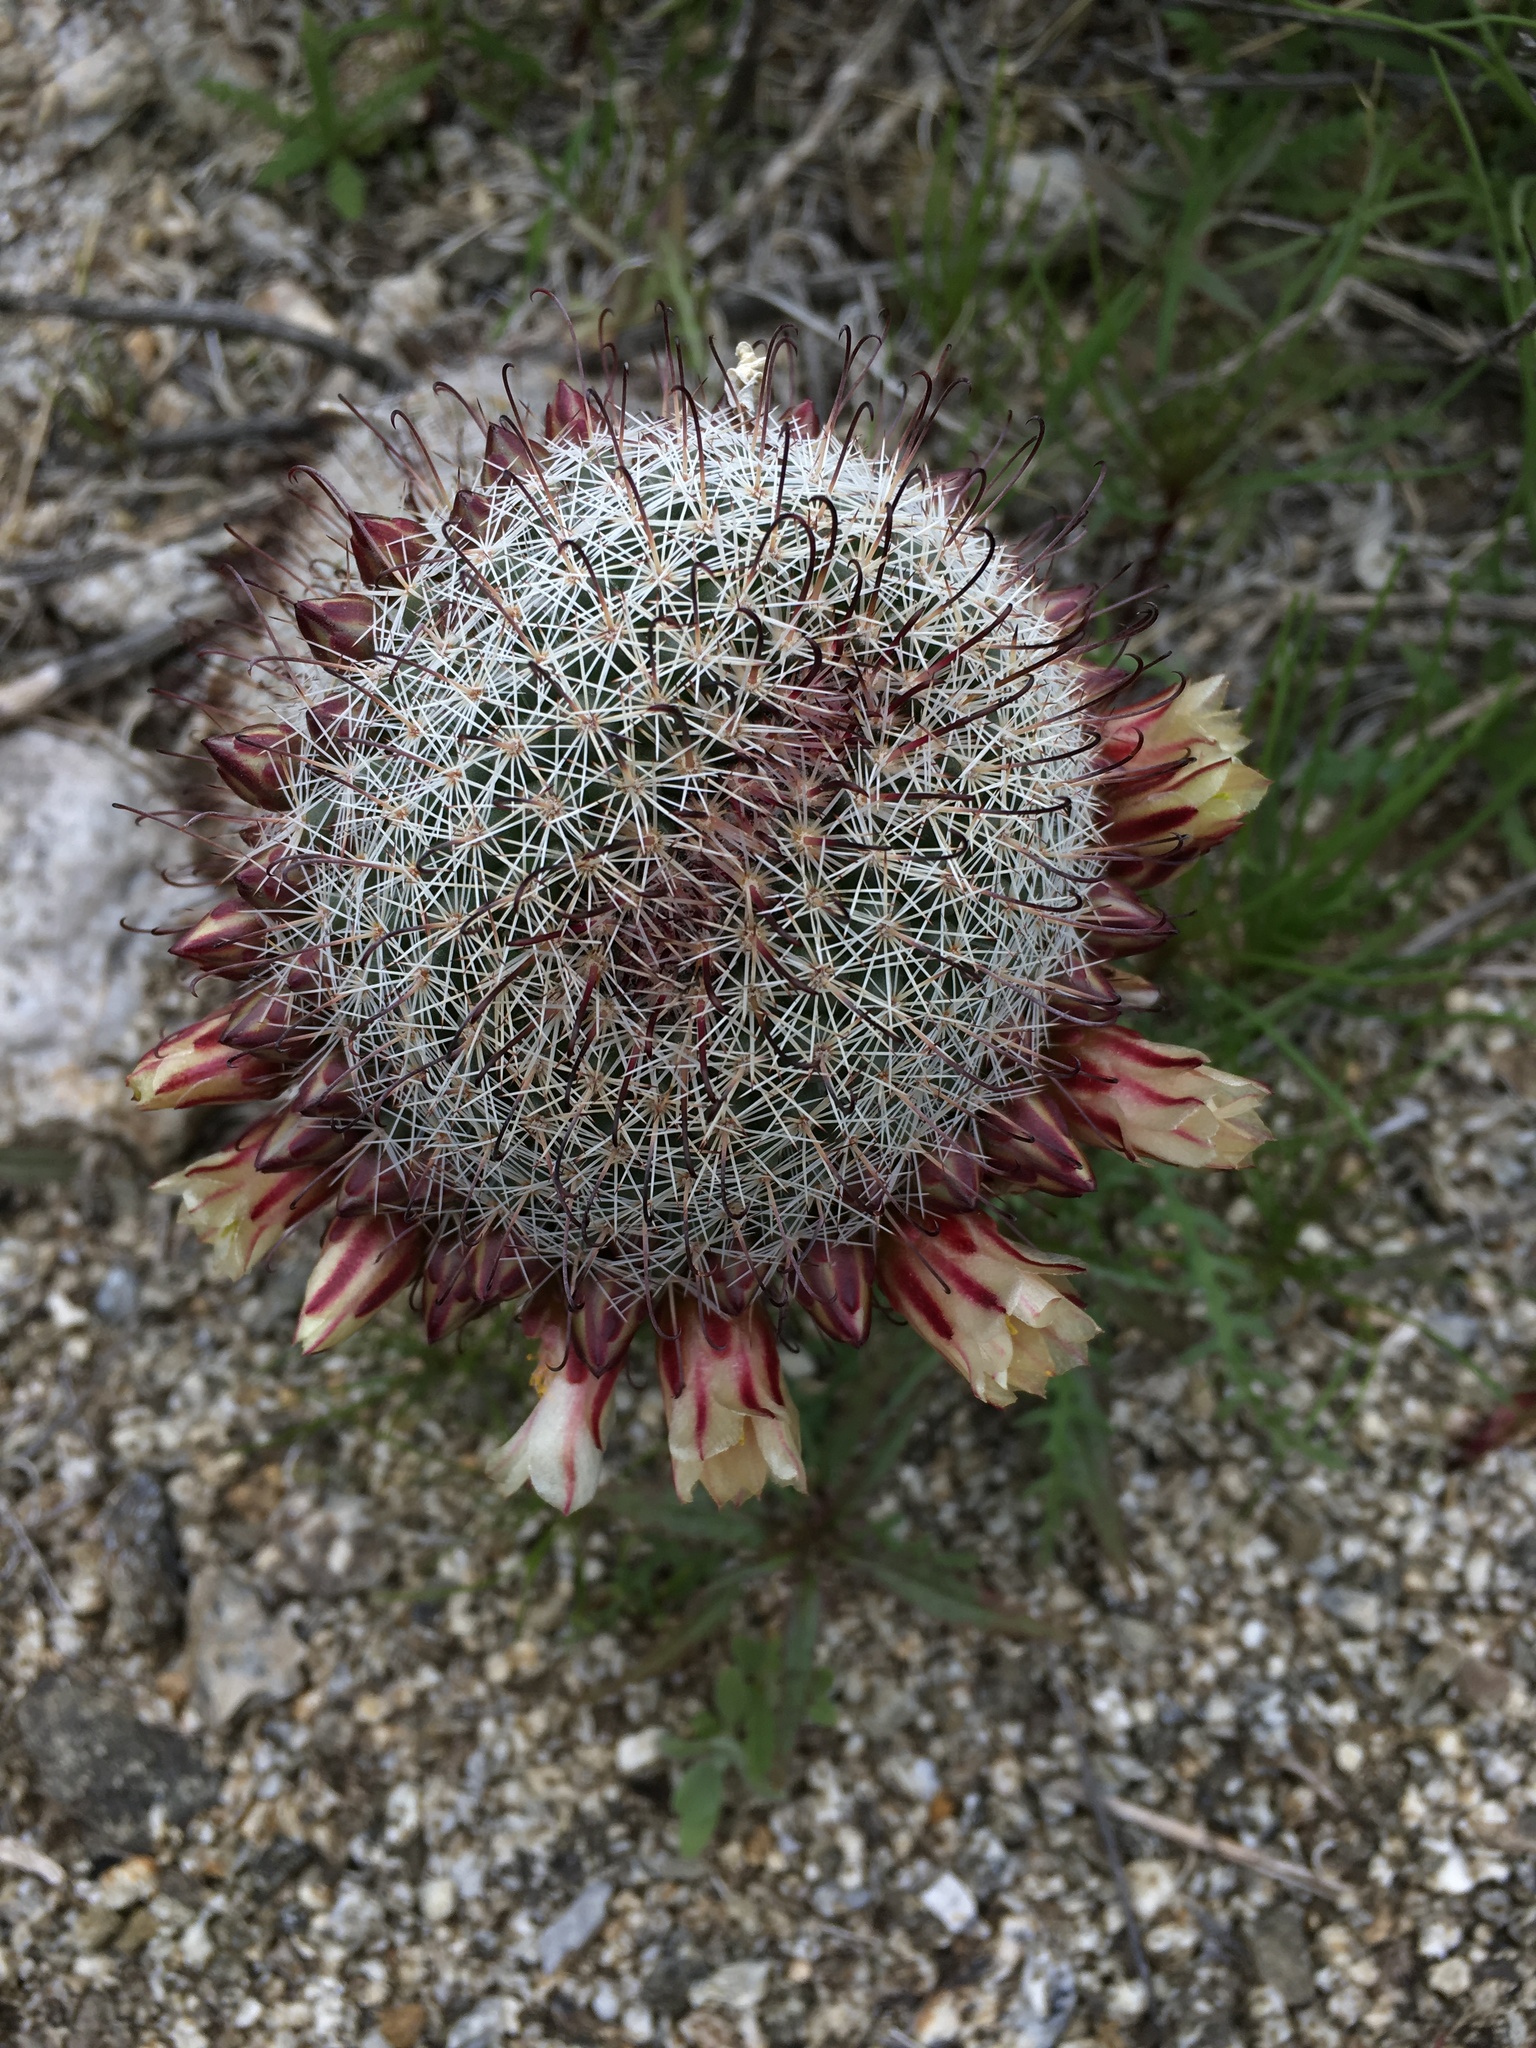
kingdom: Plantae
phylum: Tracheophyta
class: Magnoliopsida
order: Caryophyllales
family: Cactaceae
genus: Cochemiea
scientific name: Cochemiea dioica
